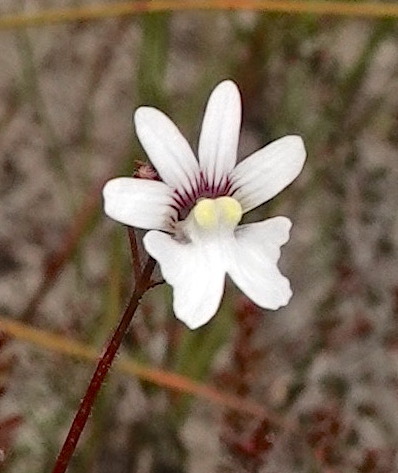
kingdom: Plantae
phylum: Tracheophyta
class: Magnoliopsida
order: Lamiales
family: Scrophulariaceae
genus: Nemesia
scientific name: Nemesia bicornis
